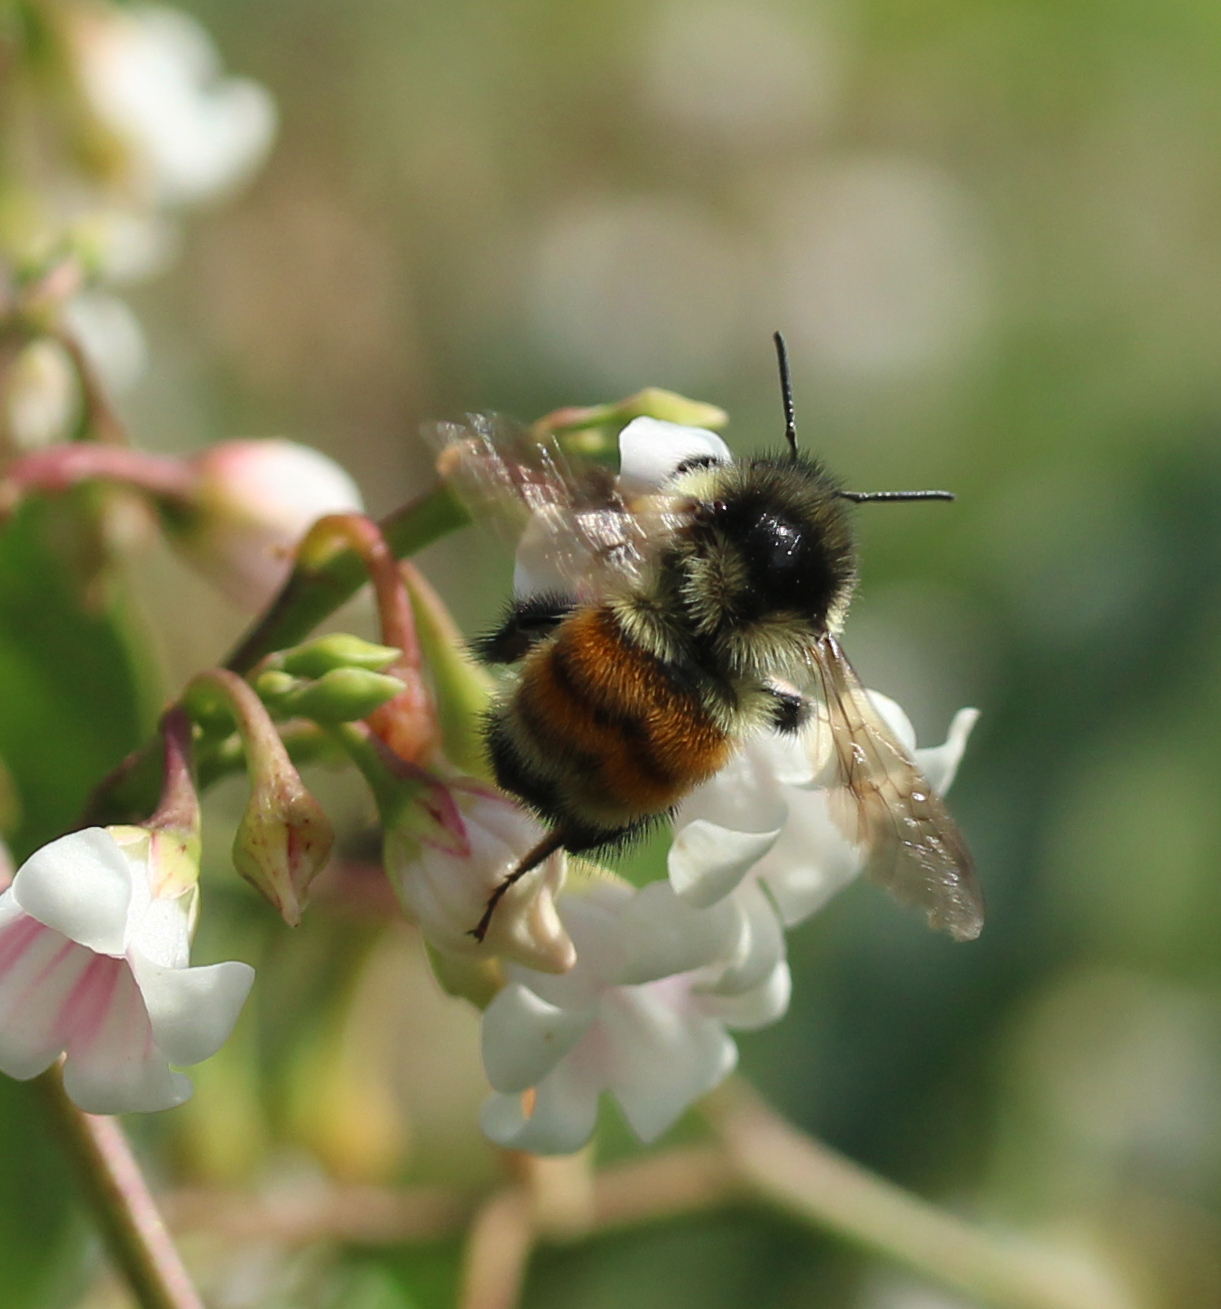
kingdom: Animalia
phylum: Arthropoda
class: Insecta
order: Hymenoptera
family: Apidae
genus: Bombus
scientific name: Bombus ternarius
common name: Tri-colored bumble bee
